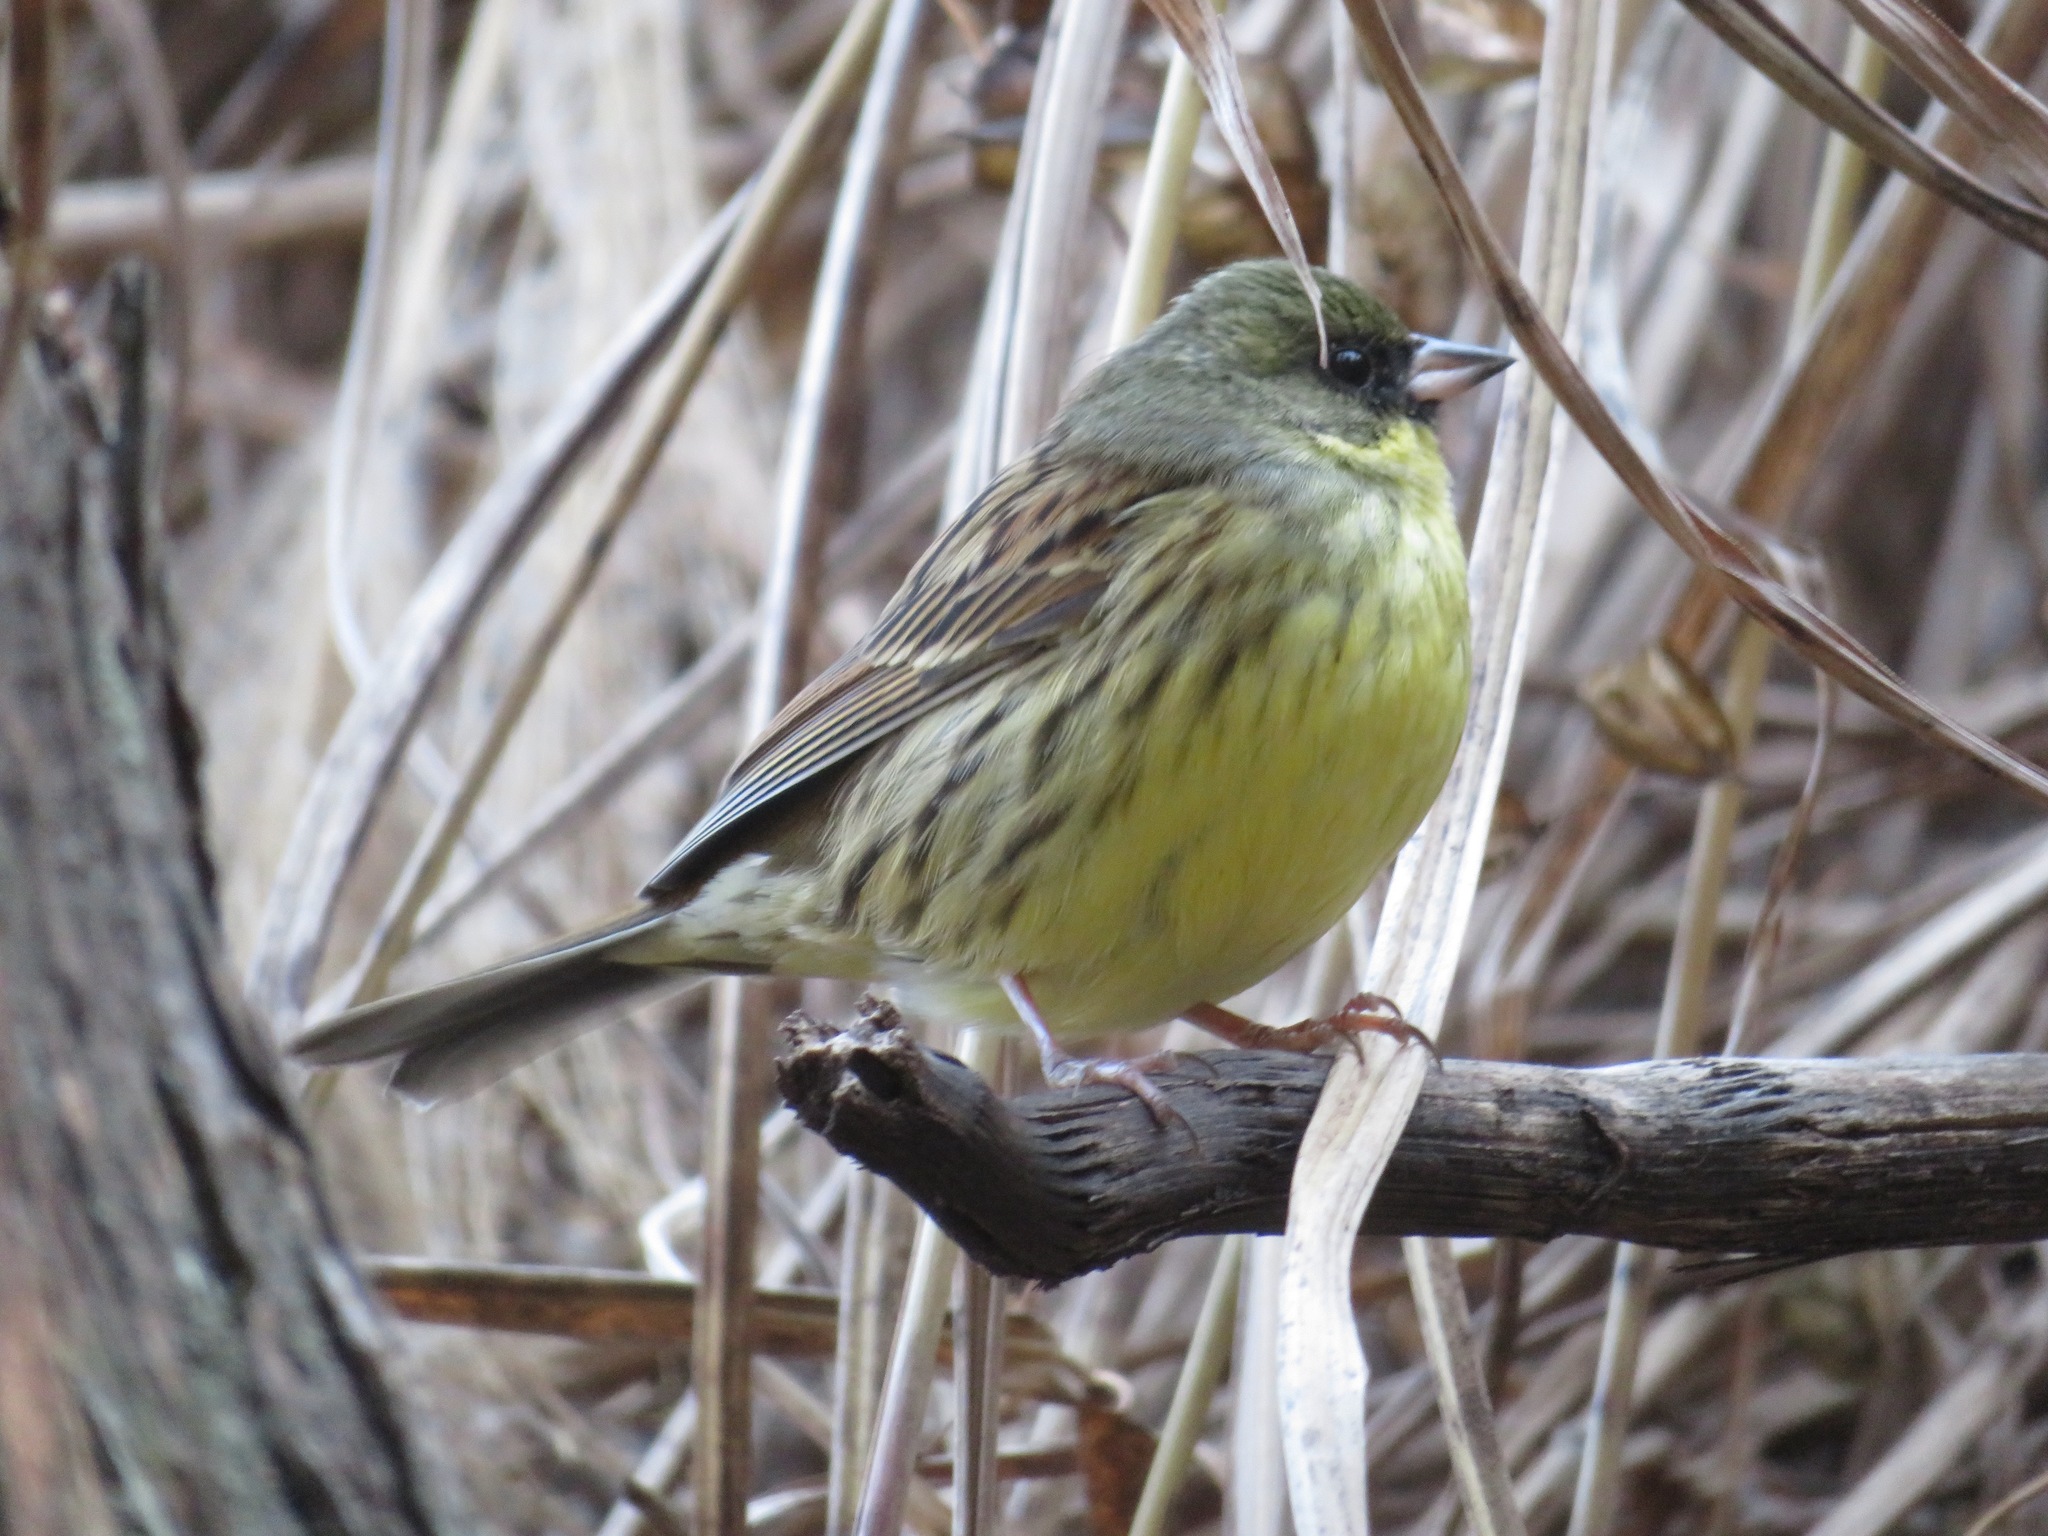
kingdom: Animalia
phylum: Chordata
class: Aves
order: Passeriformes
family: Emberizidae
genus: Emberiza
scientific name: Emberiza personata
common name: Masked bunting
